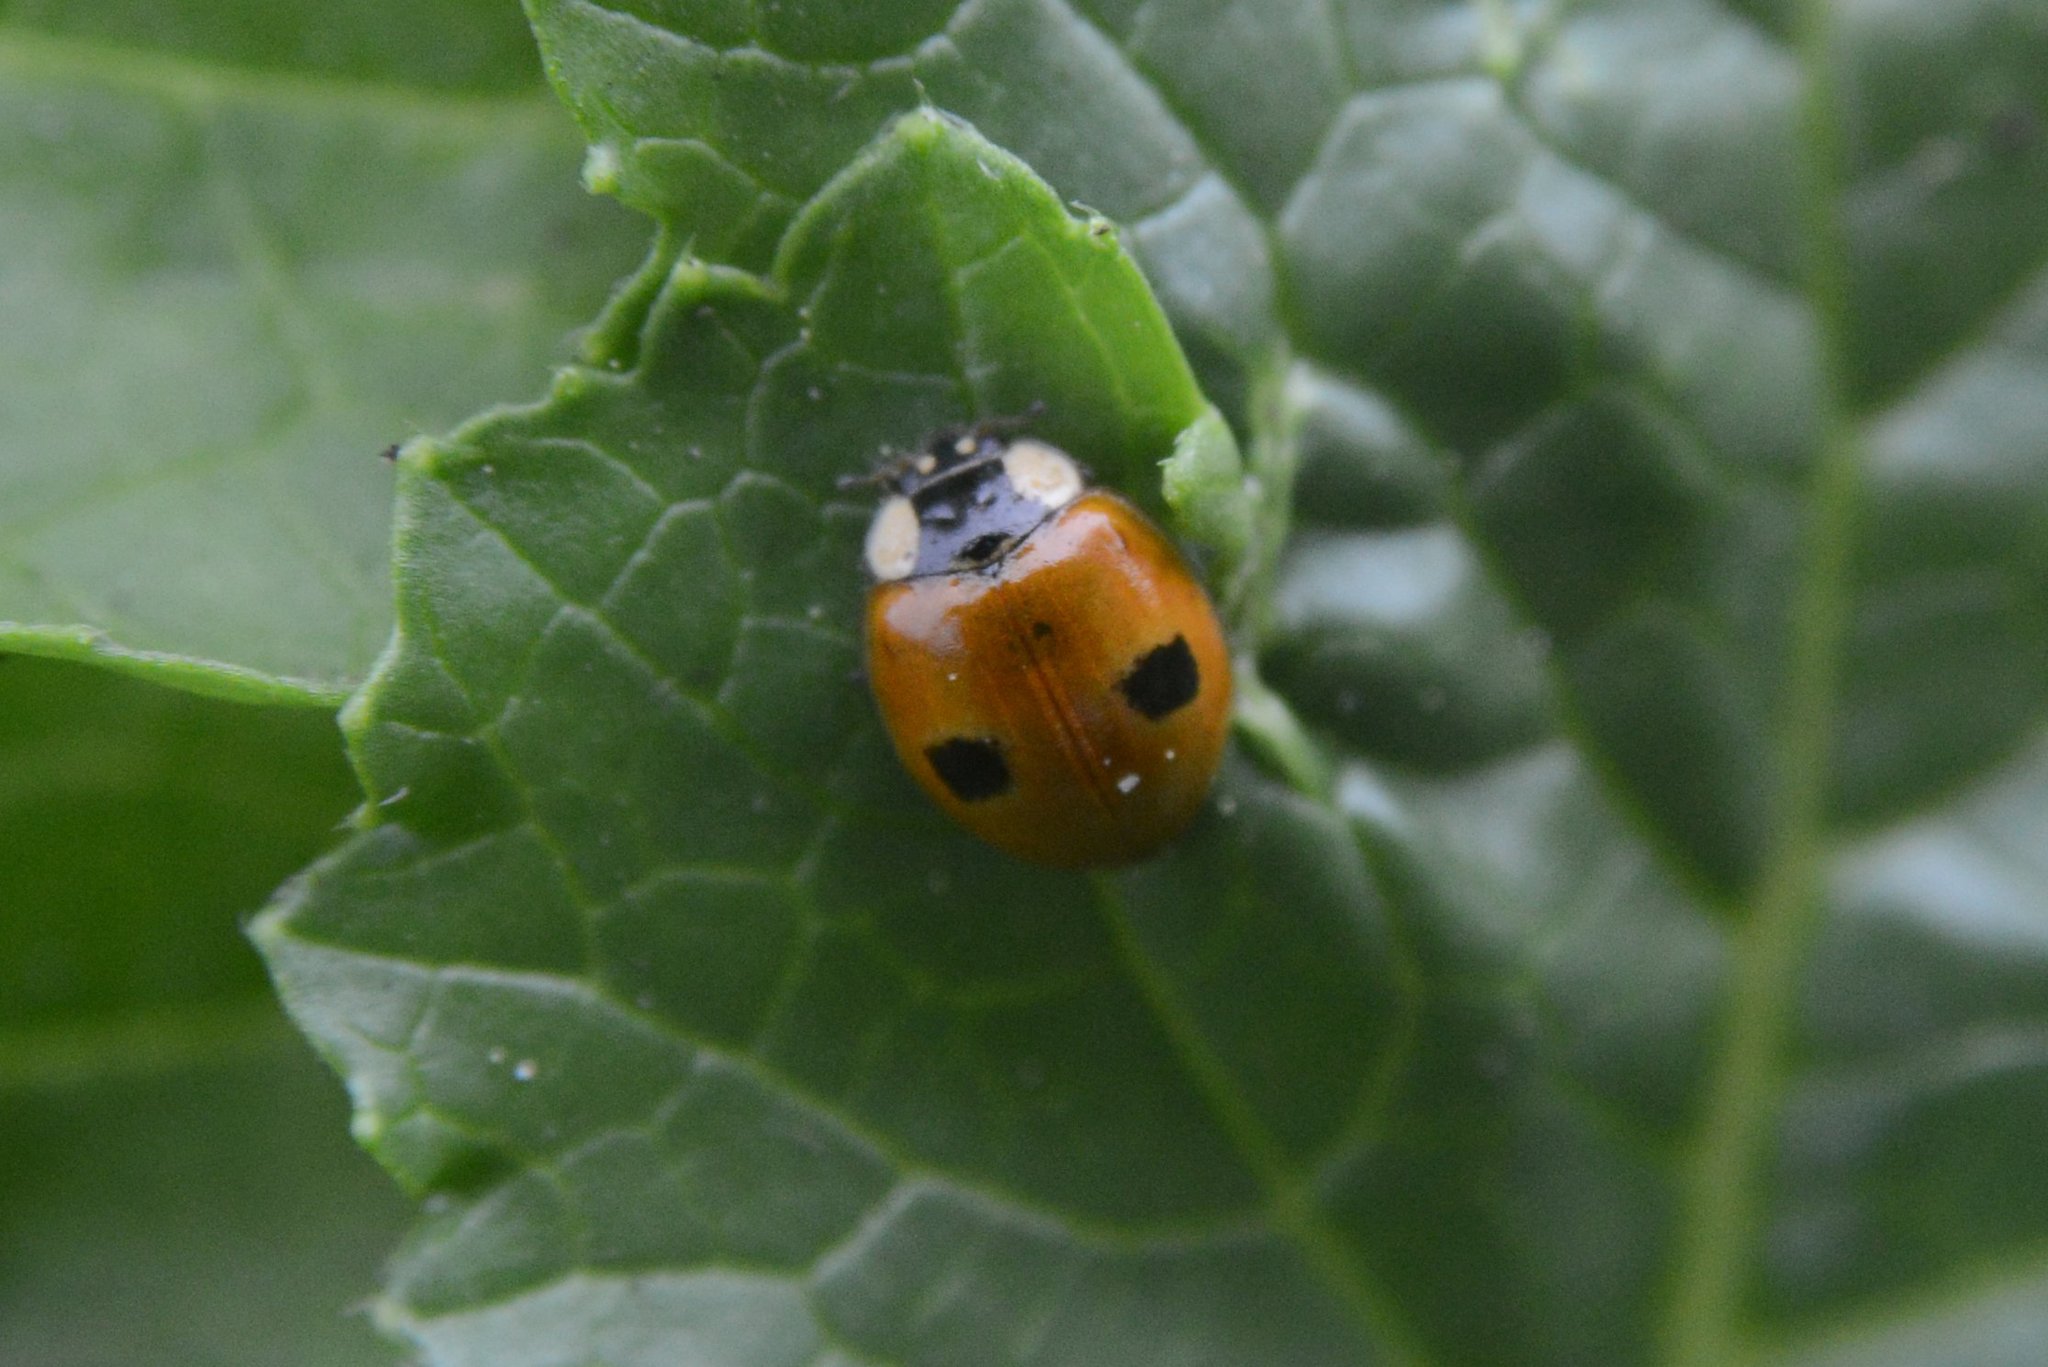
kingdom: Animalia
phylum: Arthropoda
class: Insecta
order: Coleoptera
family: Coccinellidae
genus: Adalia
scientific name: Adalia bipunctata
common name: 2-spot ladybird
